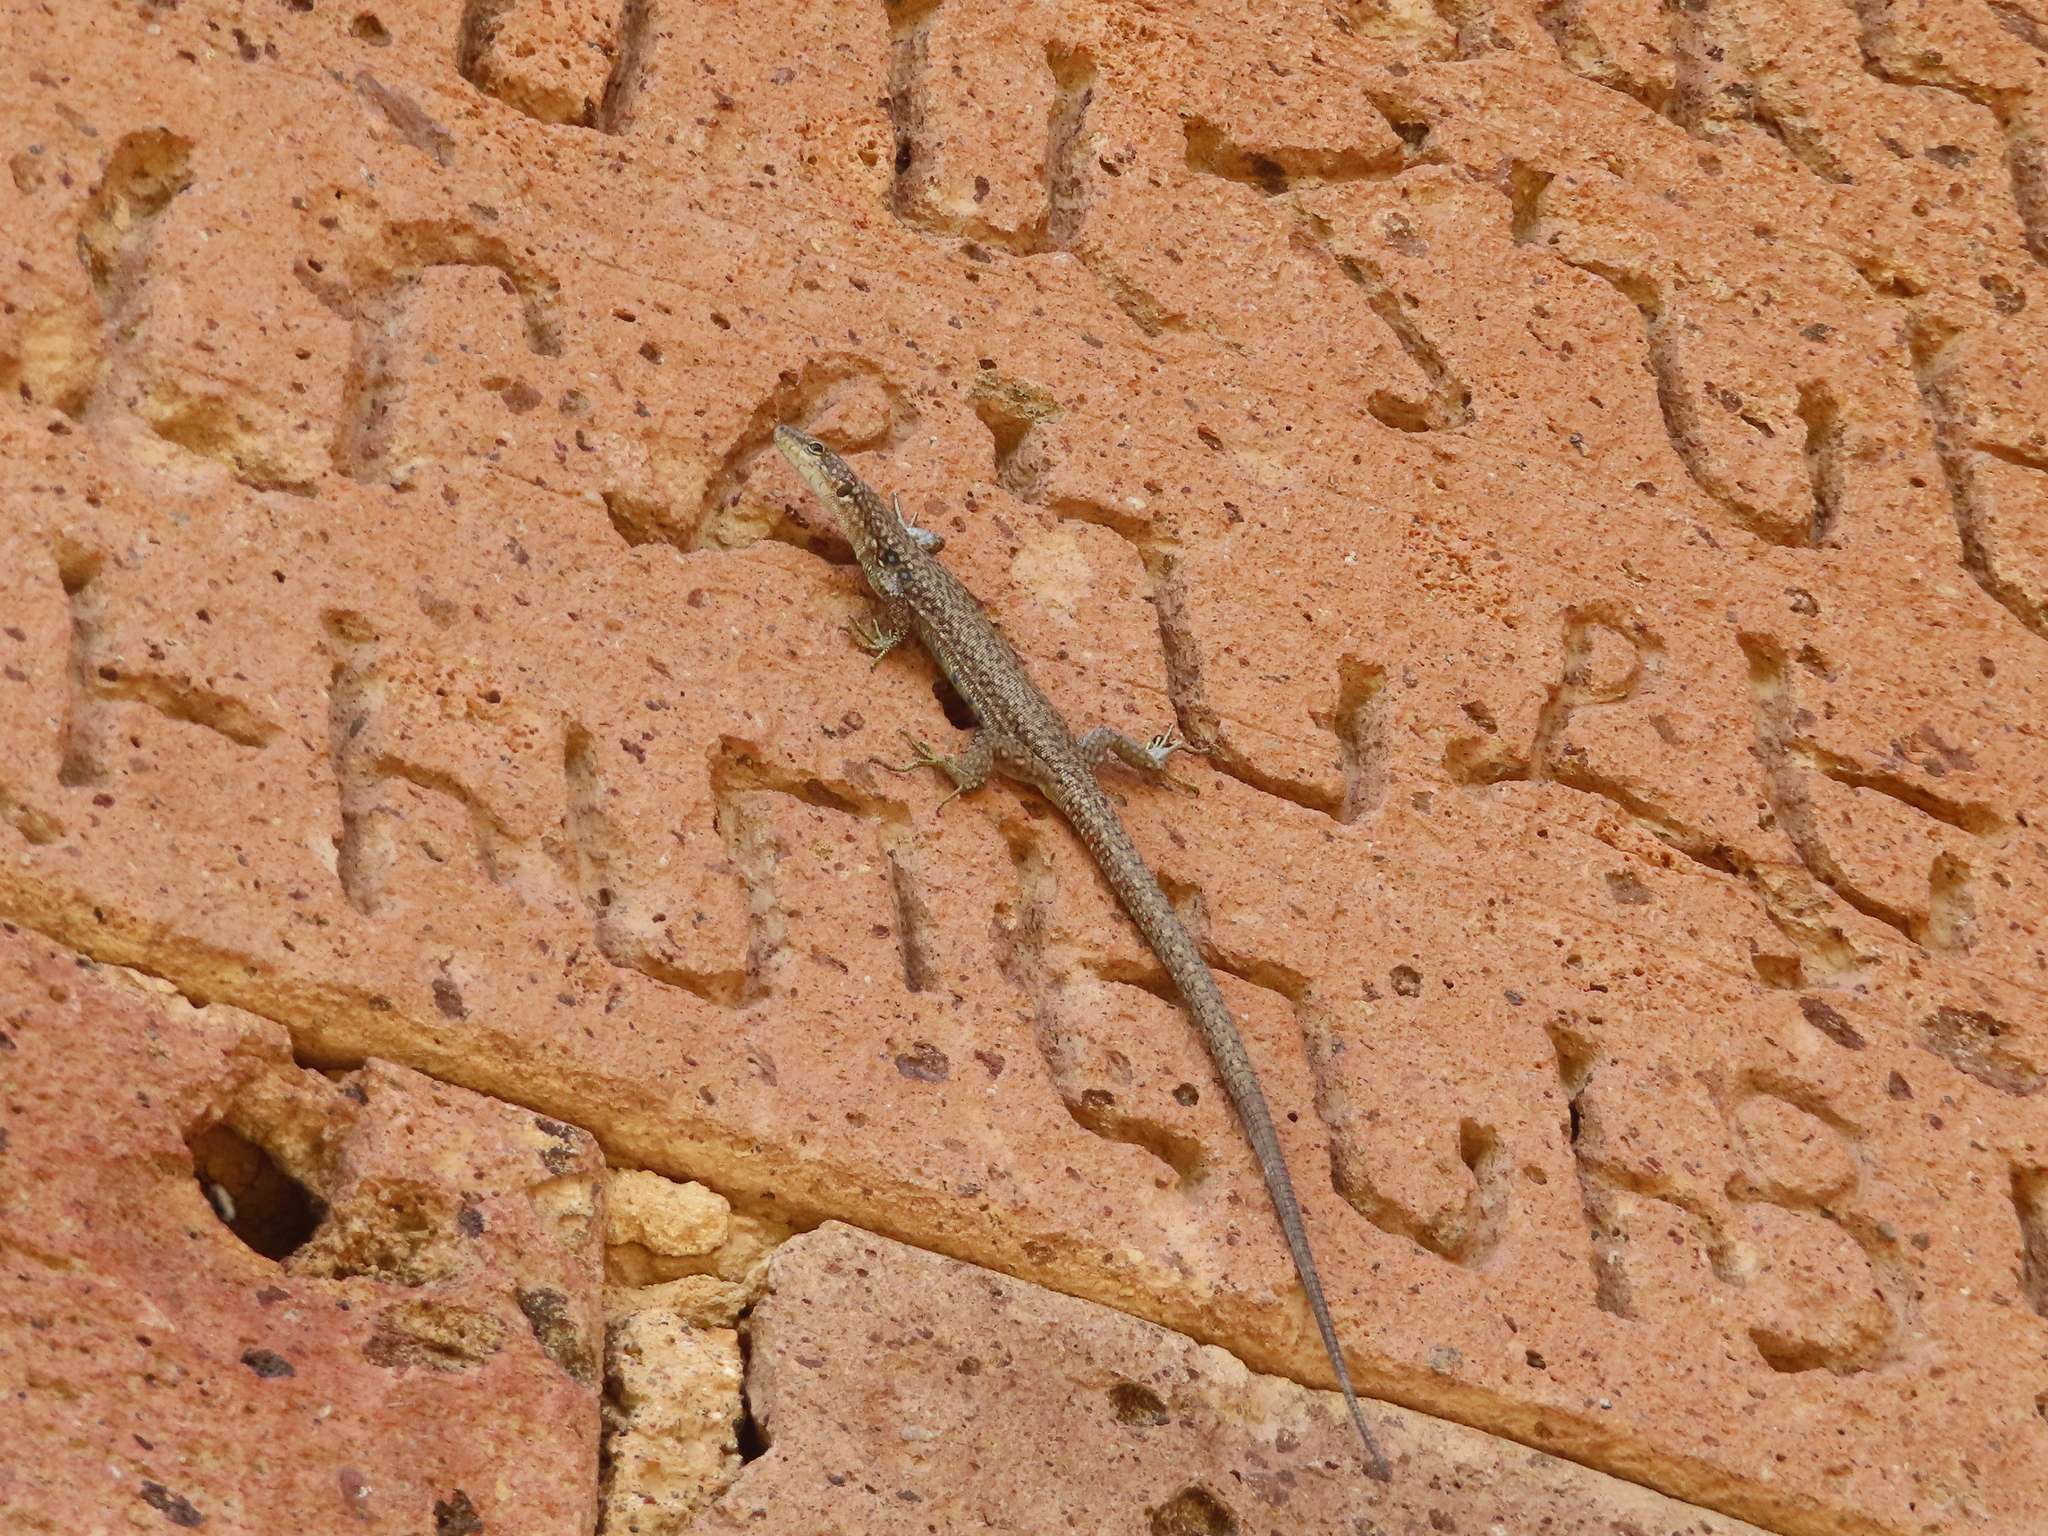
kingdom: Animalia
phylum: Chordata
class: Squamata
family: Lacertidae
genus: Darevskia
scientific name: Darevskia
